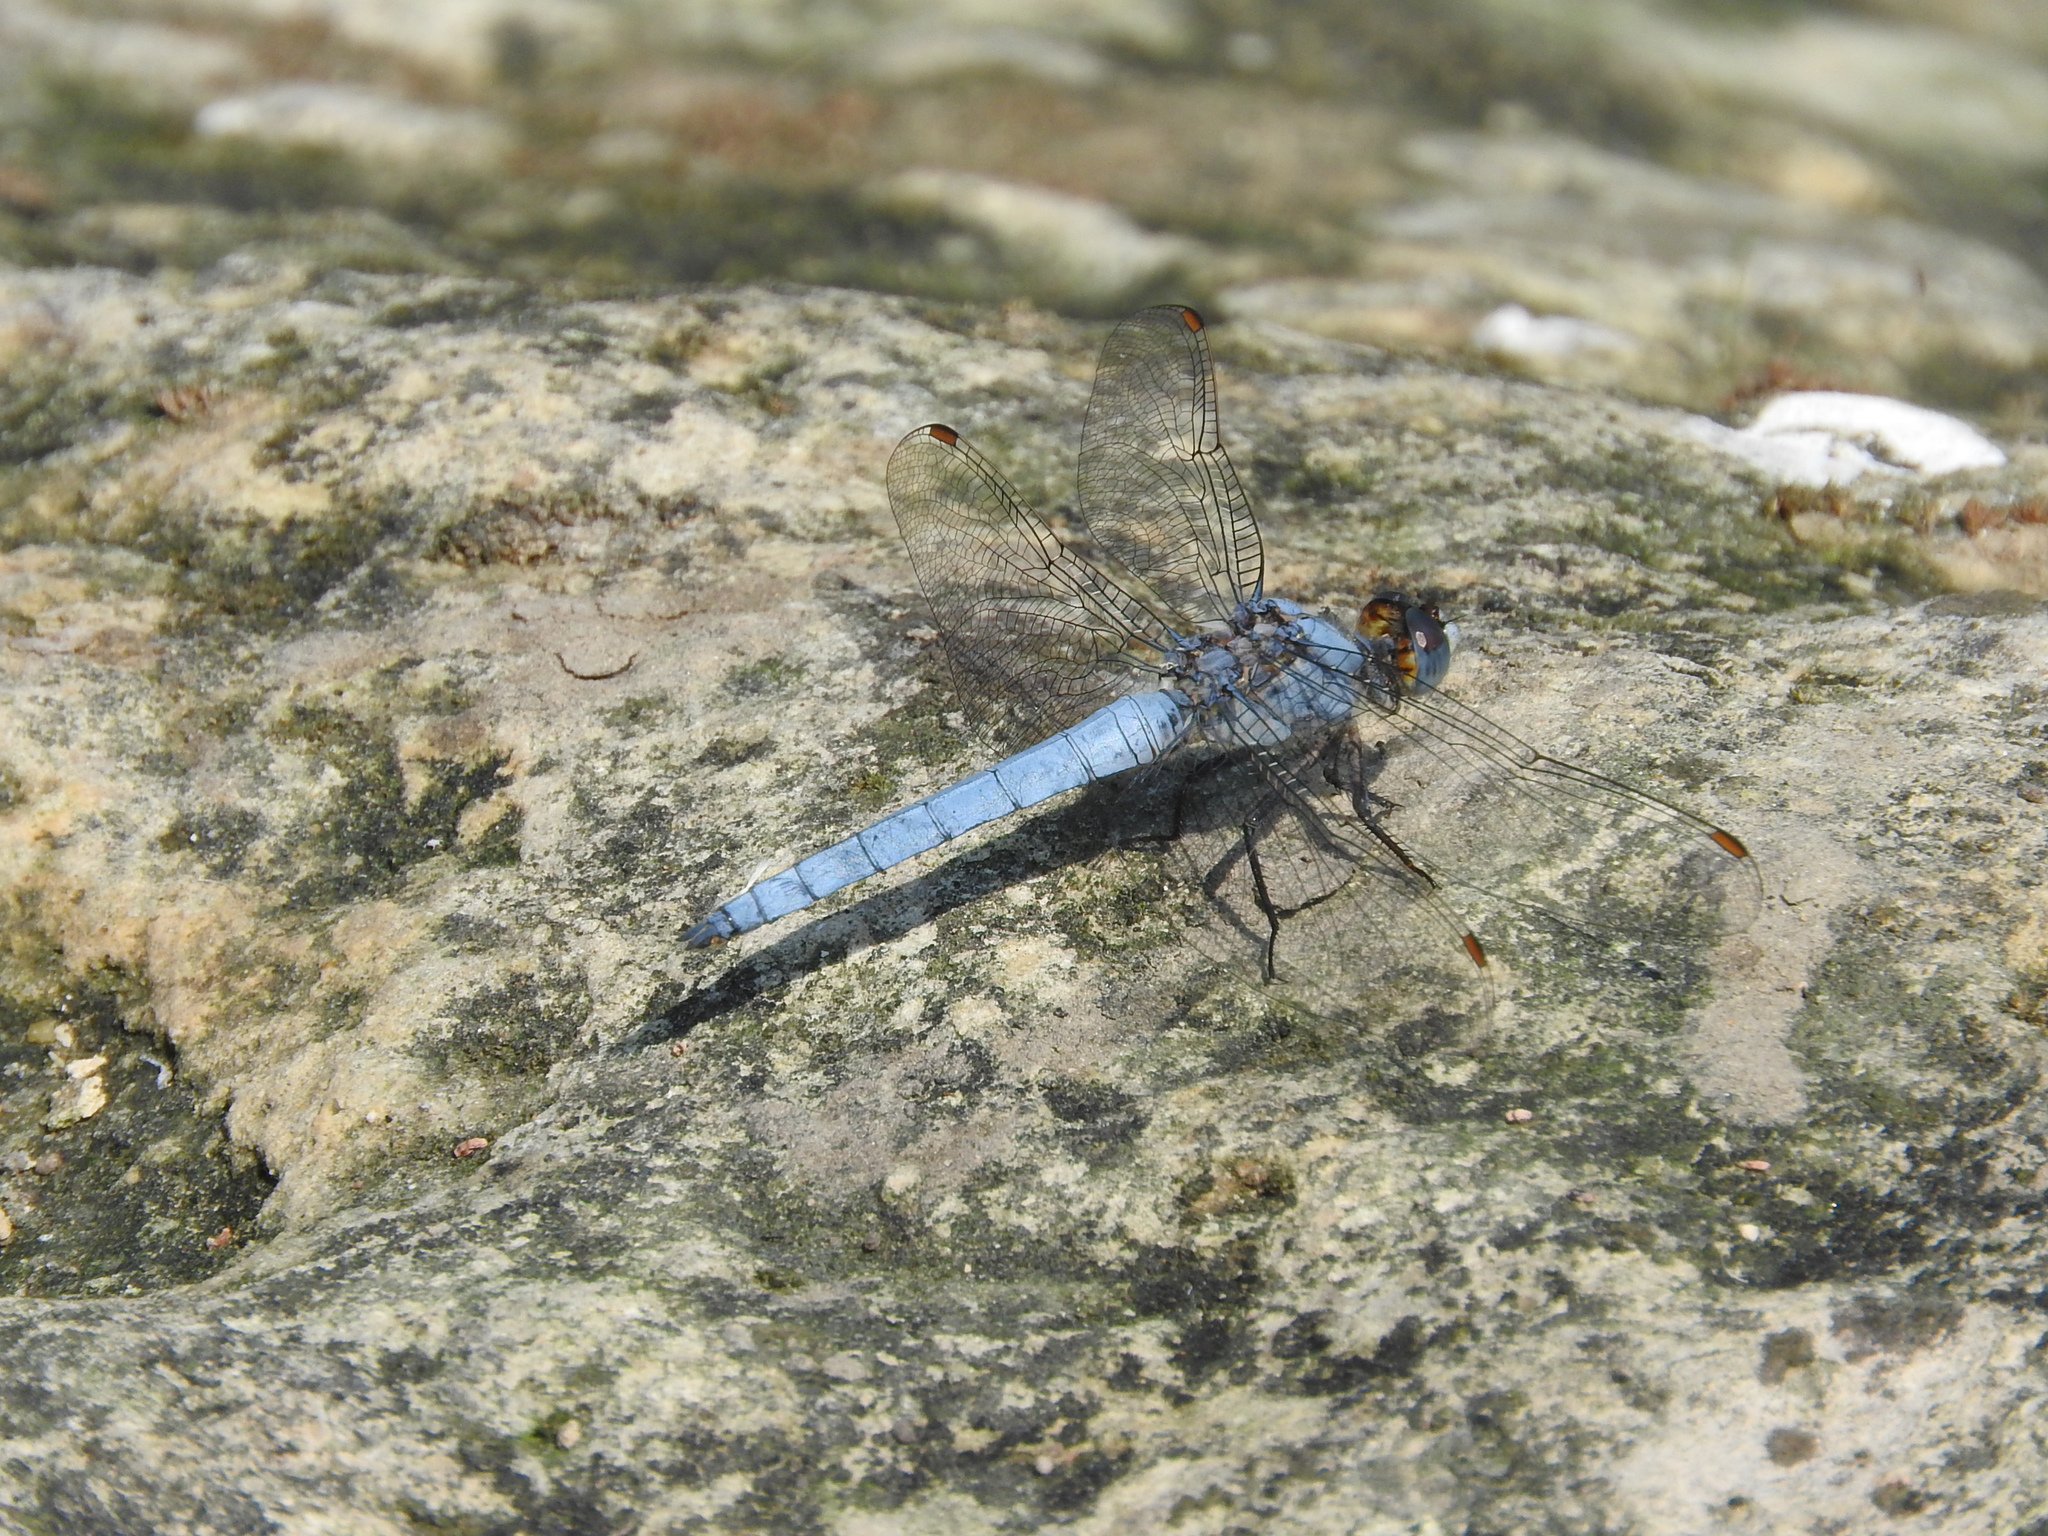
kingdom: Animalia
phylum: Arthropoda
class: Insecta
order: Odonata
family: Libellulidae
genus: Orthetrum
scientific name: Orthetrum brunneum
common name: Southern skimmer
